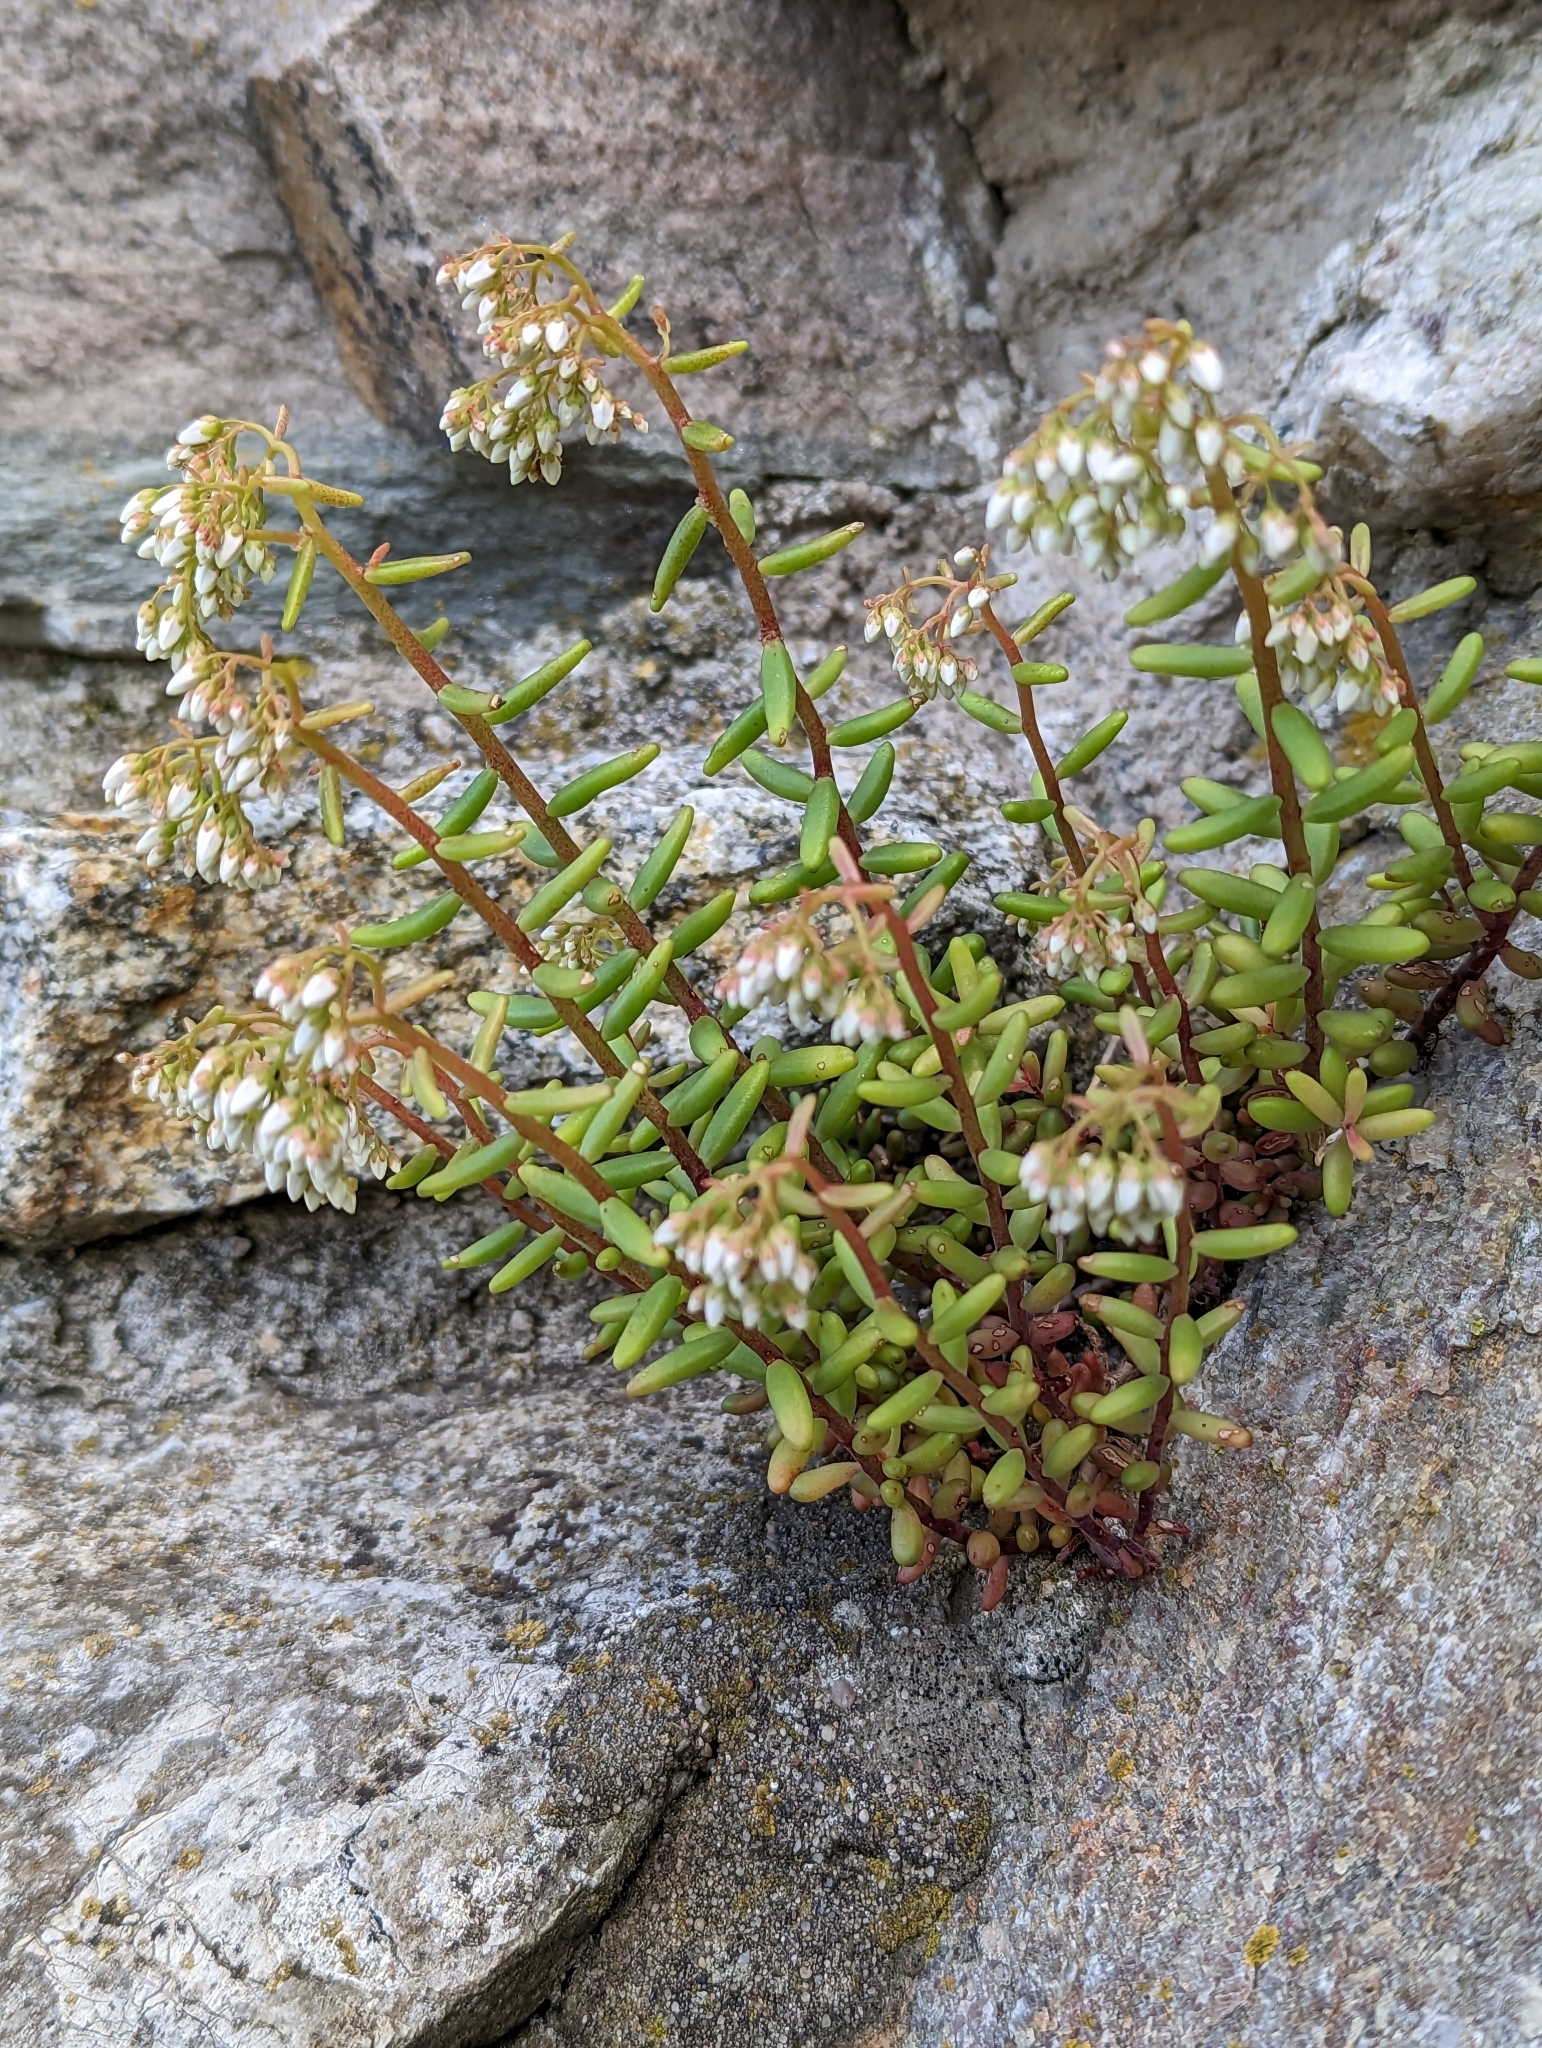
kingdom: Plantae
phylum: Tracheophyta
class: Magnoliopsida
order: Saxifragales
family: Crassulaceae
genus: Sedum
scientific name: Sedum album
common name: White stonecrop
